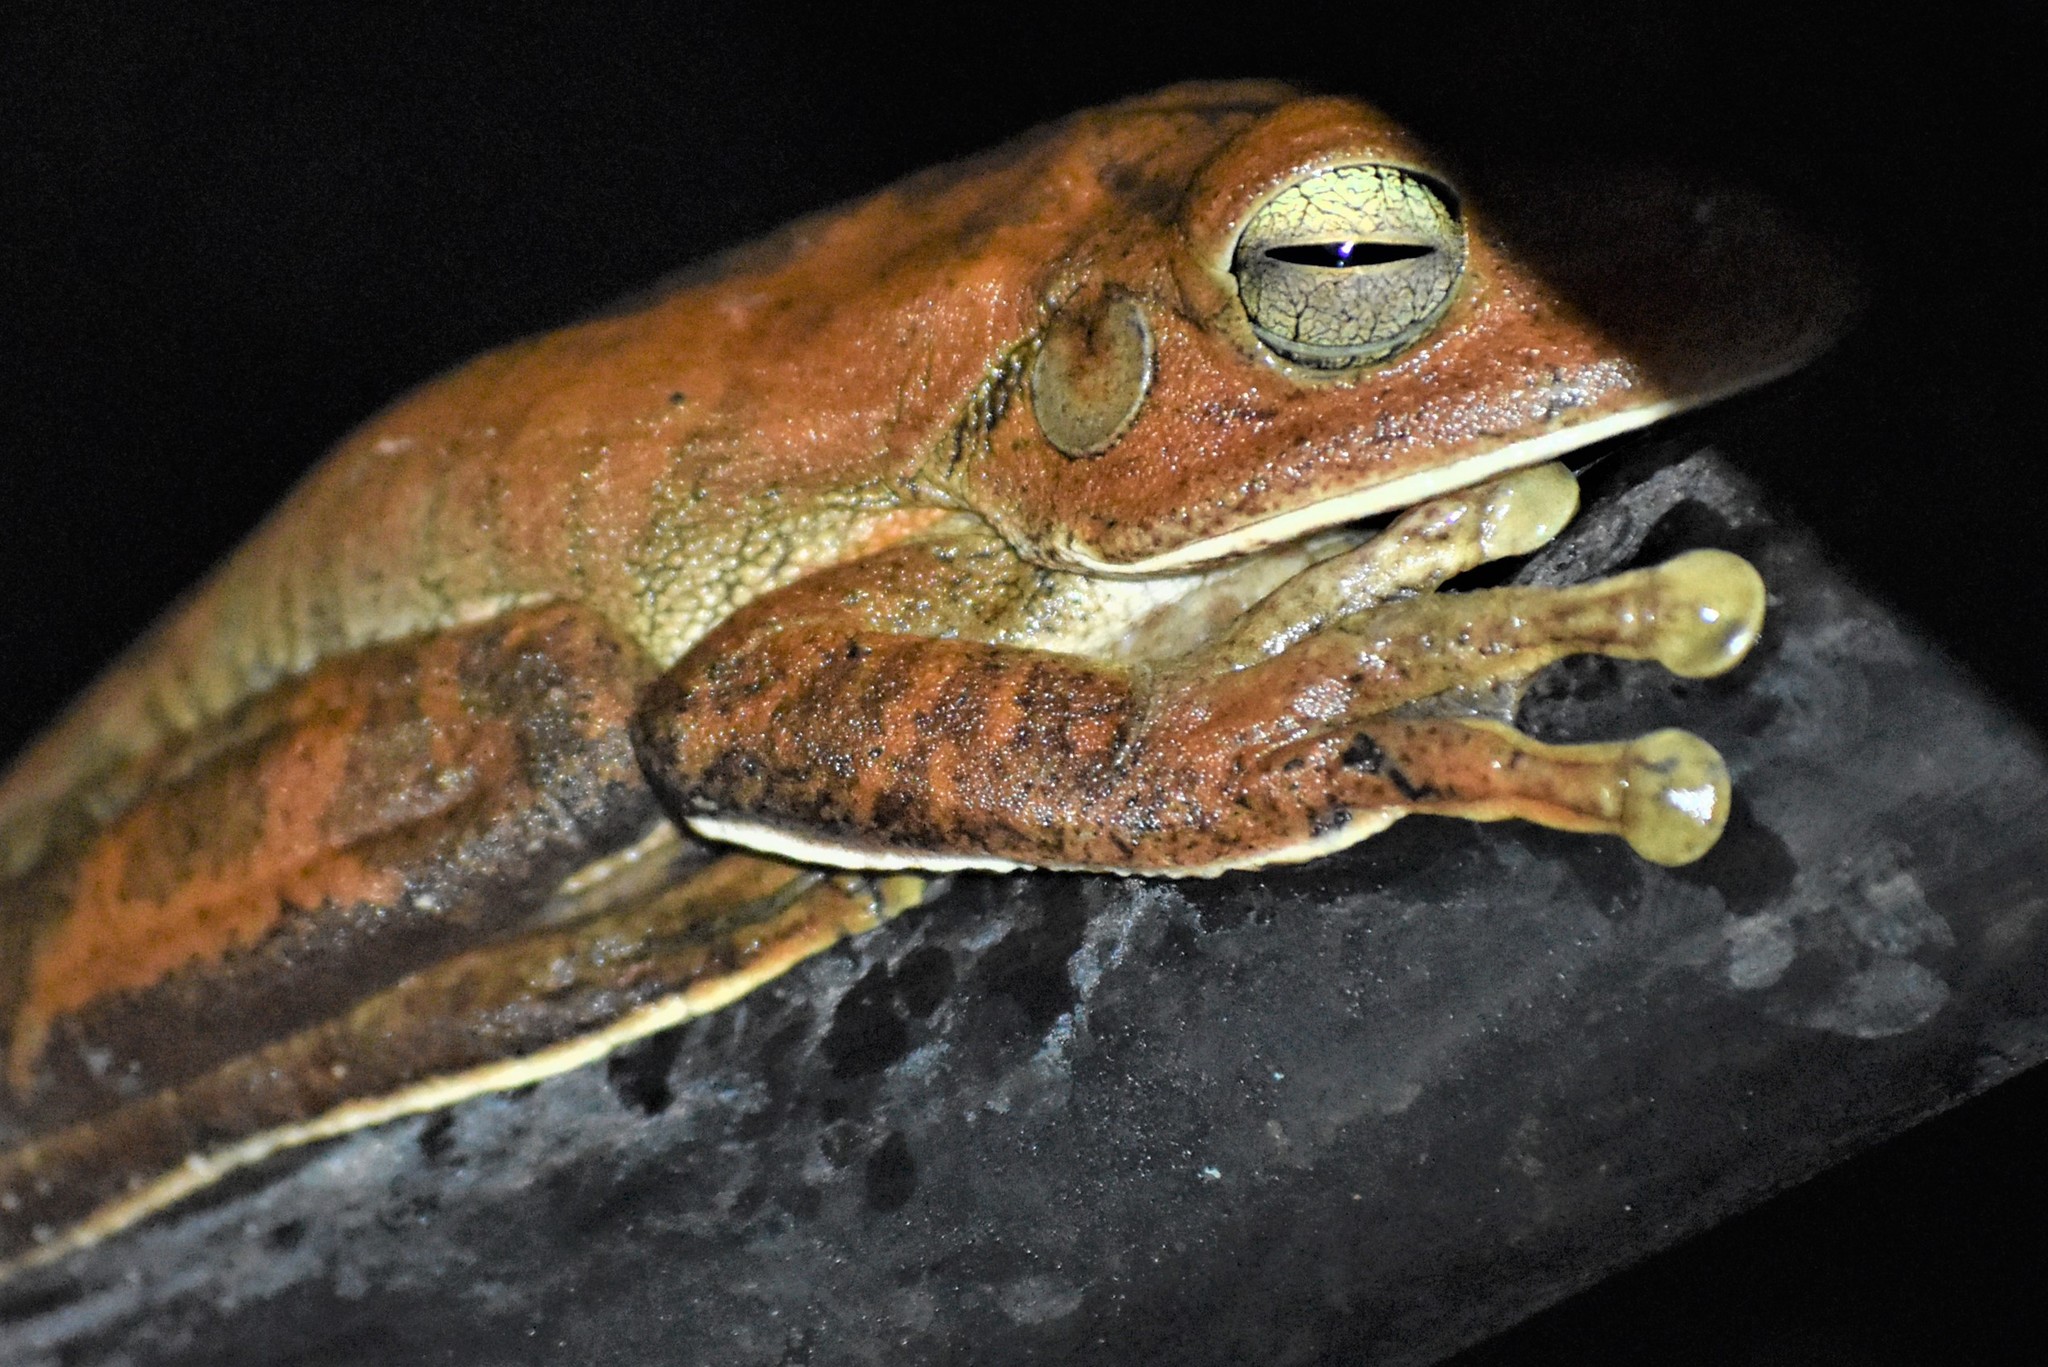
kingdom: Animalia
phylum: Chordata
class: Amphibia
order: Anura
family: Hylidae
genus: Boana
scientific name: Boana faber
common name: Blacksmith tree frog
